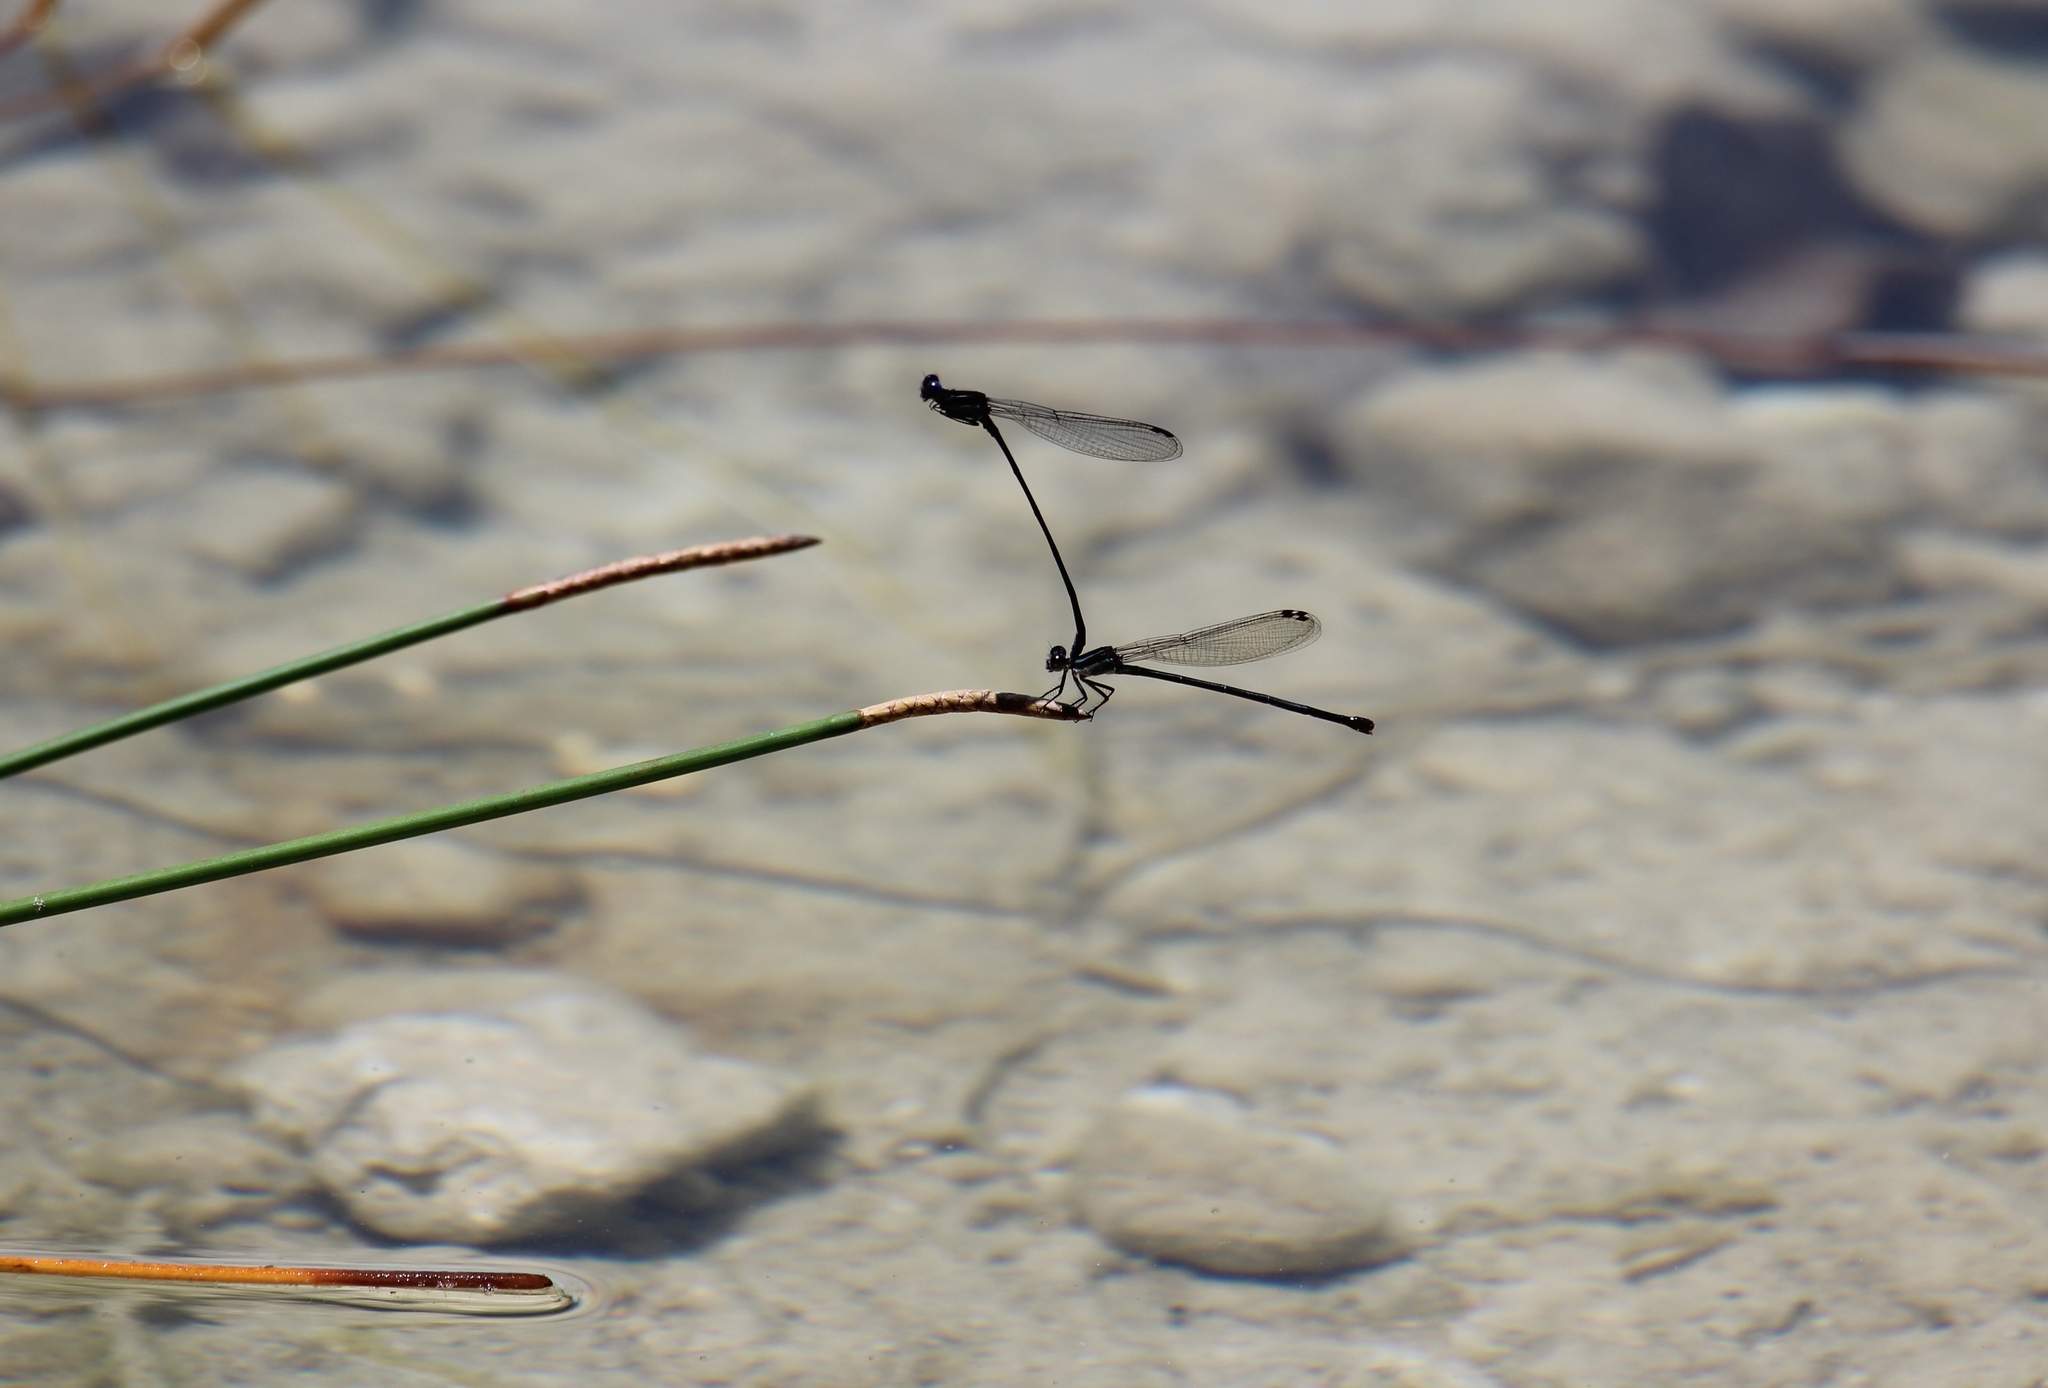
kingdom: Animalia
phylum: Arthropoda
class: Insecta
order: Odonata
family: Coenagrionidae
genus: Argia
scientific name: Argia translata
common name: Dusky dancer
